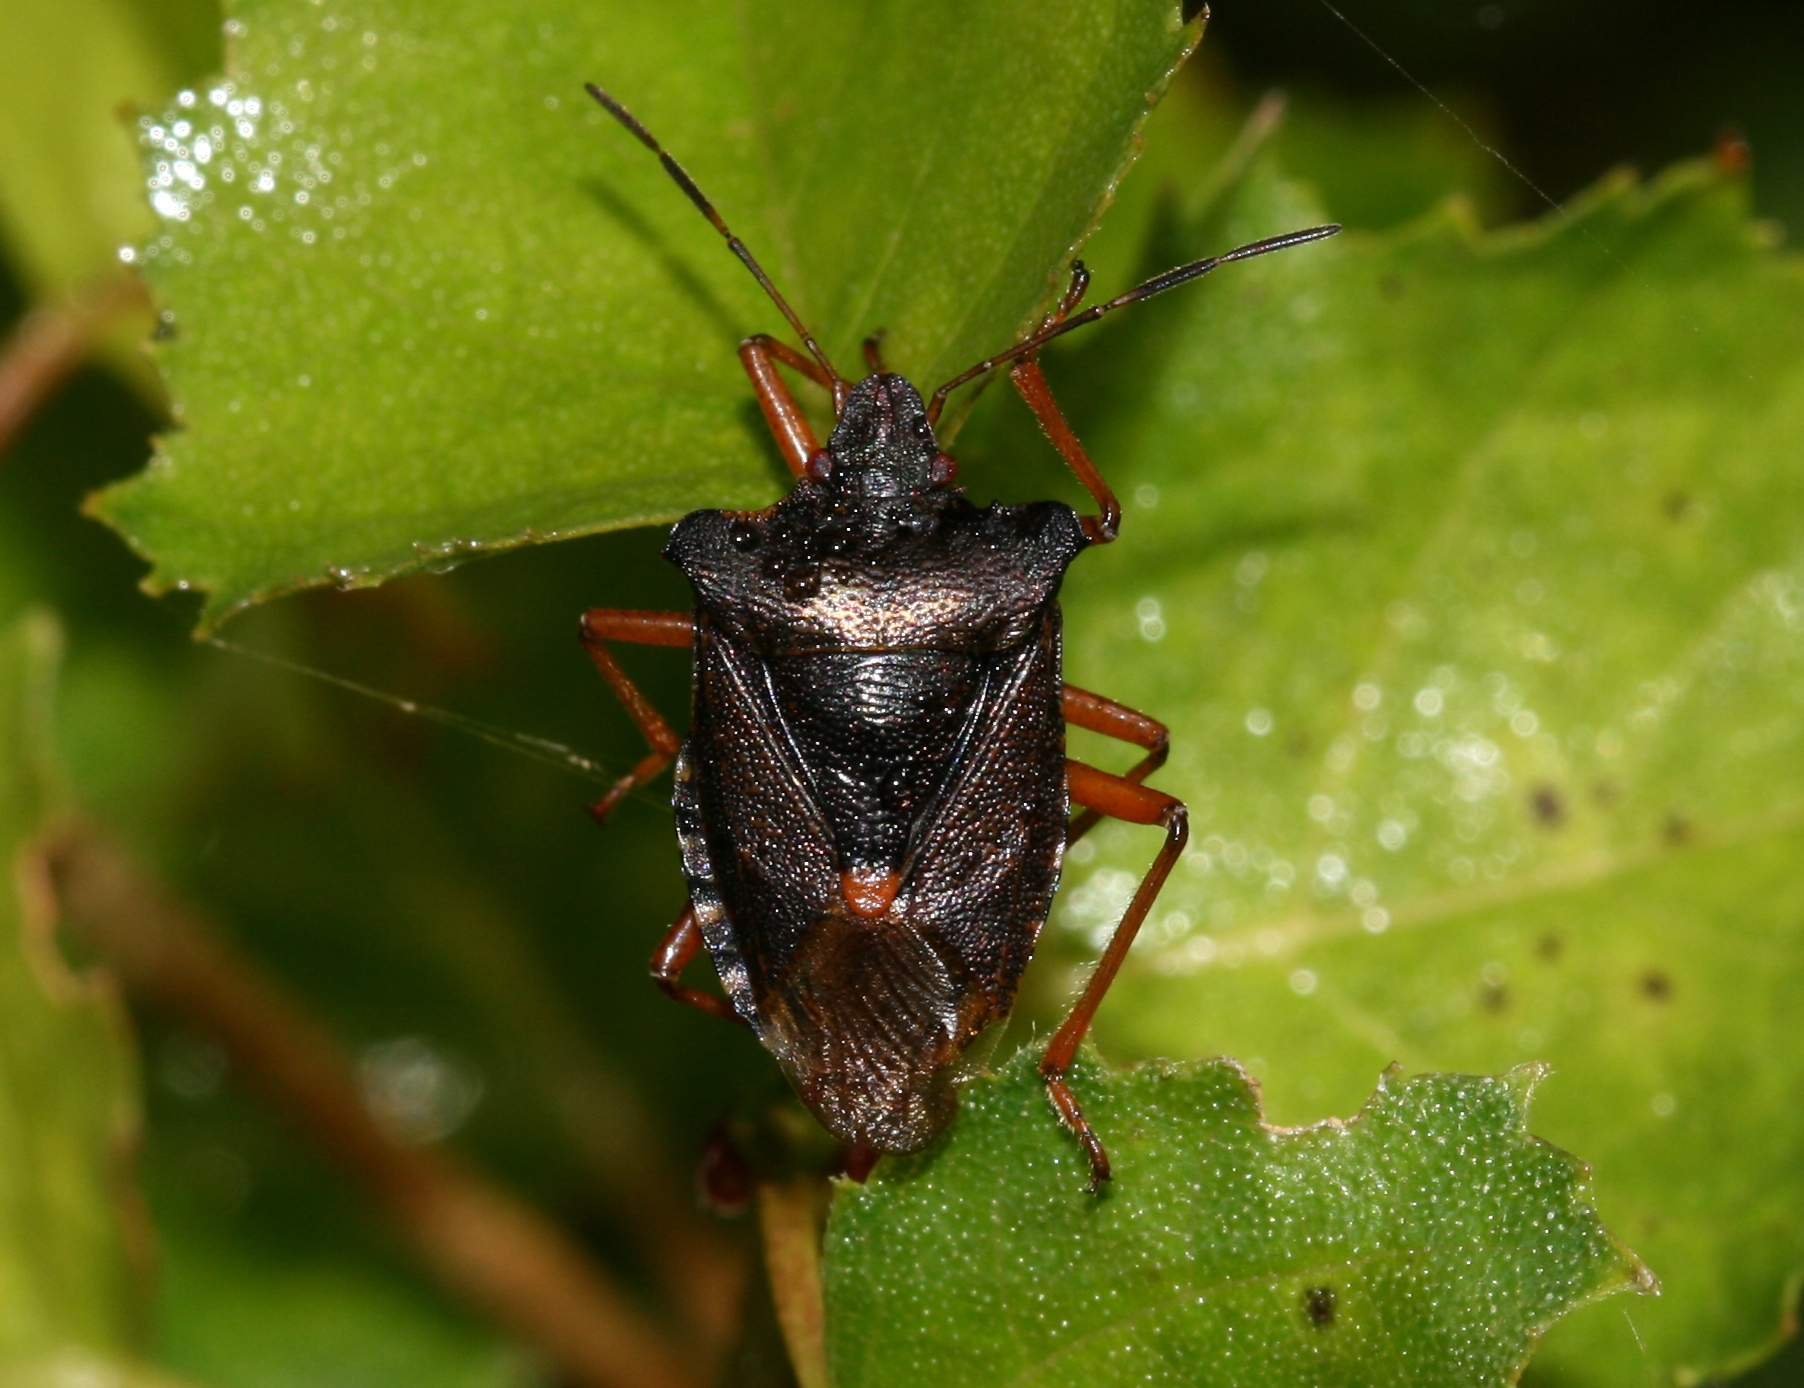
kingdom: Animalia
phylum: Arthropoda
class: Insecta
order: Hemiptera
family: Pentatomidae
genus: Pentatoma
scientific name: Pentatoma rufipes
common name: Forest bug
